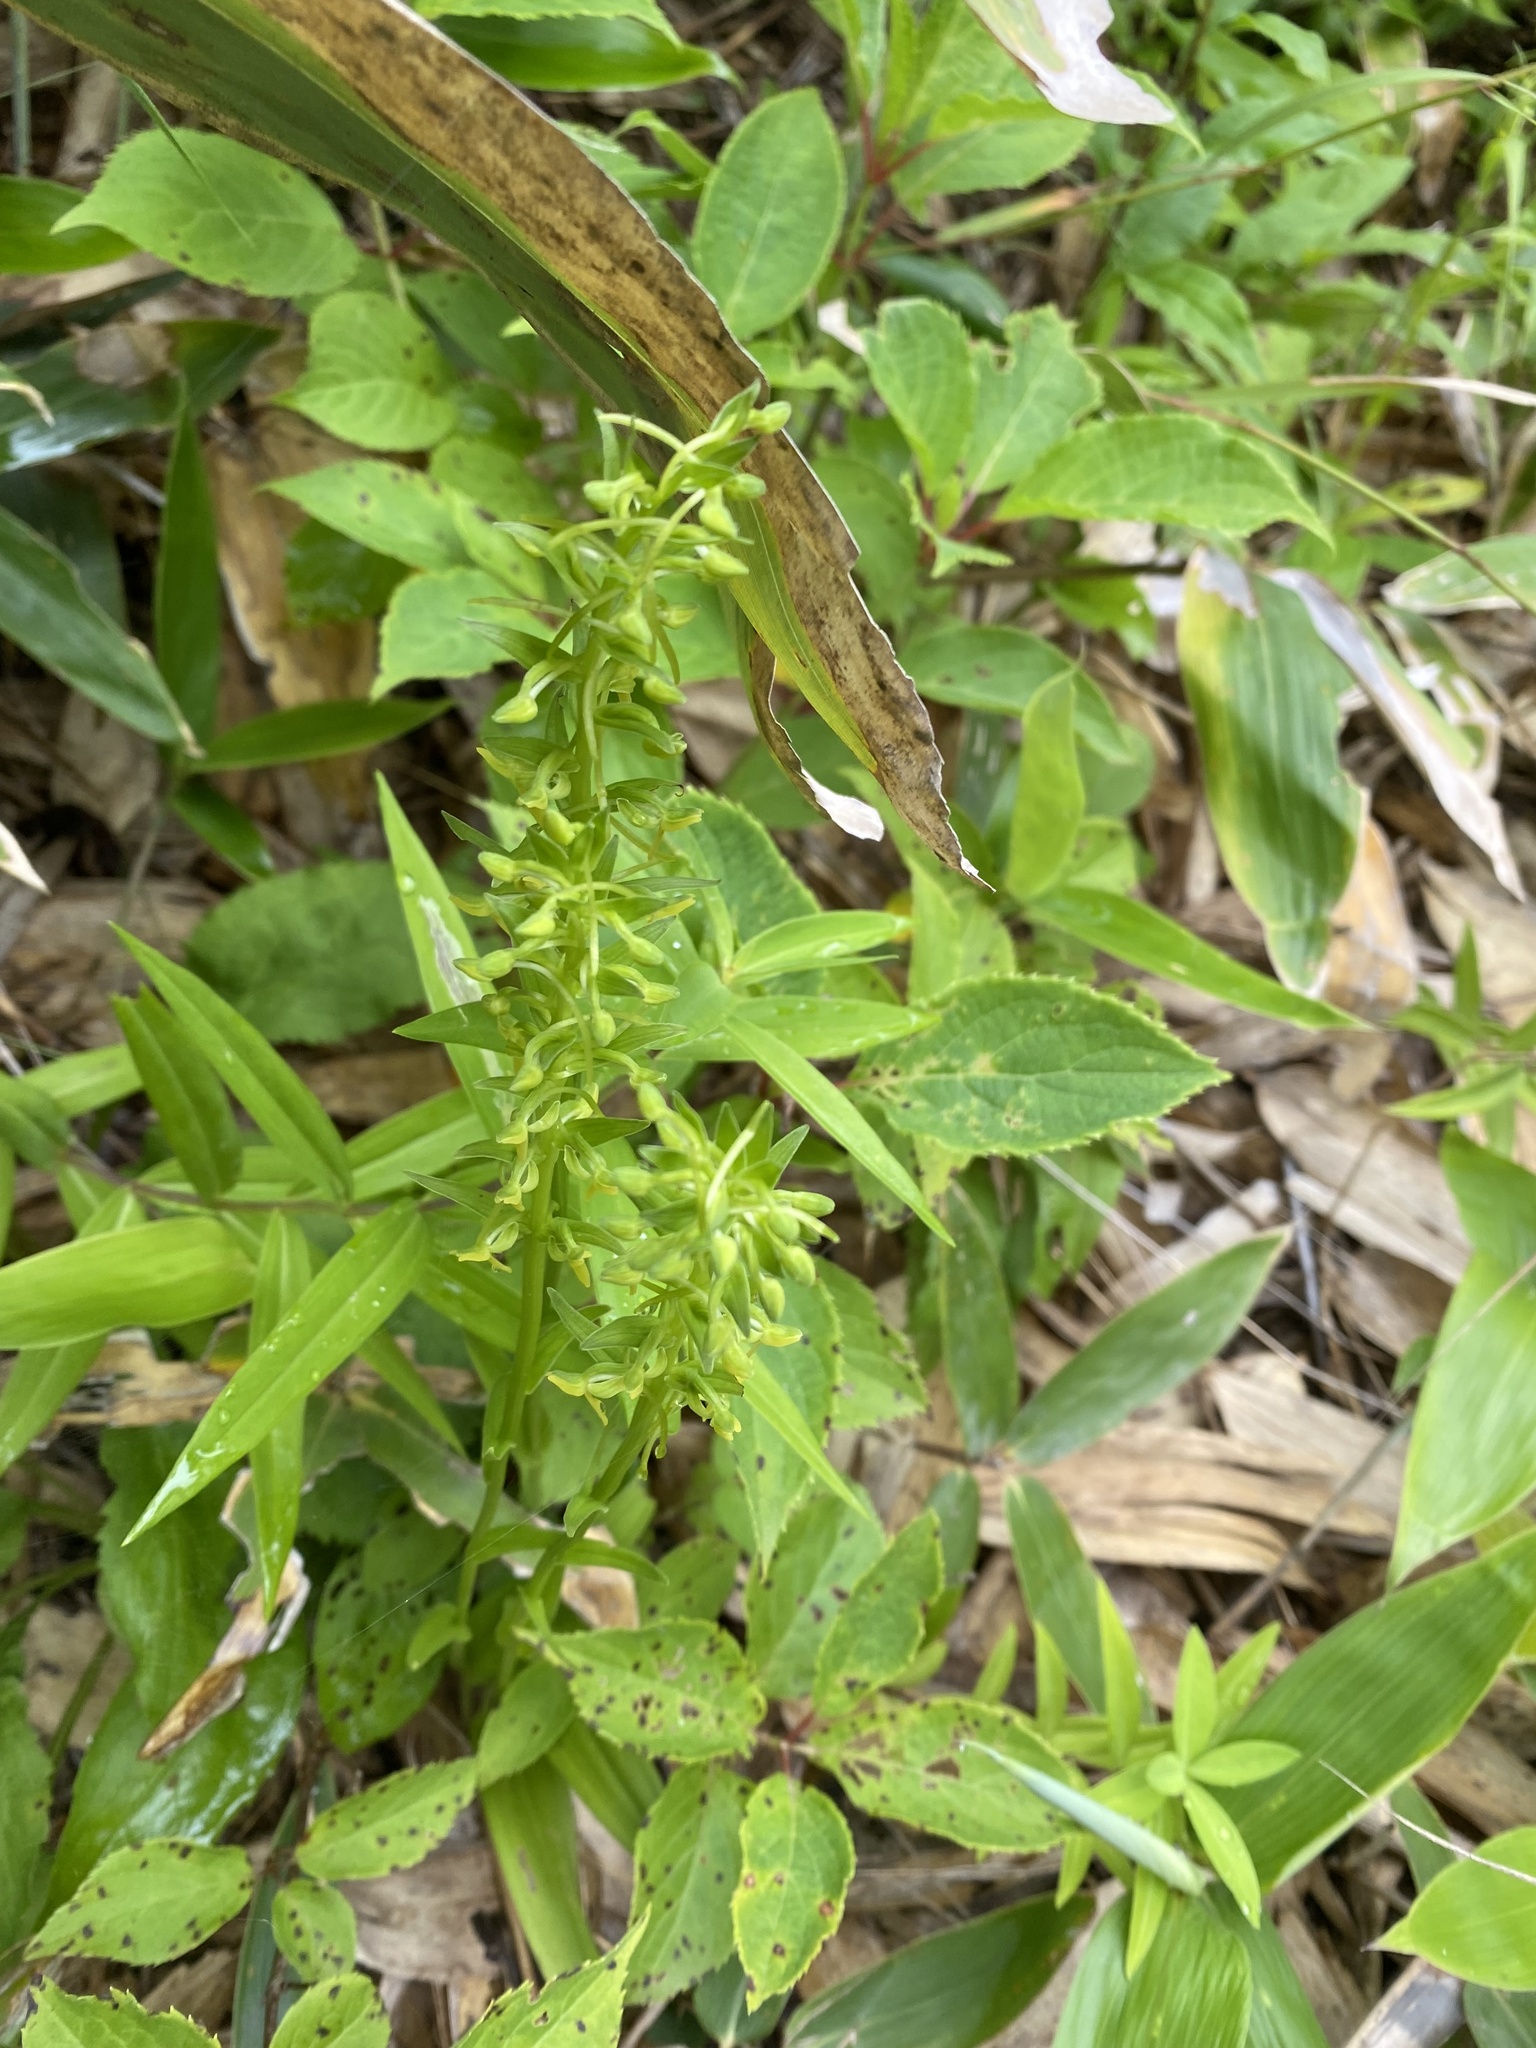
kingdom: Plantae
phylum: Tracheophyta
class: Liliopsida
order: Asparagales
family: Orchidaceae
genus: Platanthera
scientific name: Platanthera tipuloides
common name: Aleutian bog orchid
